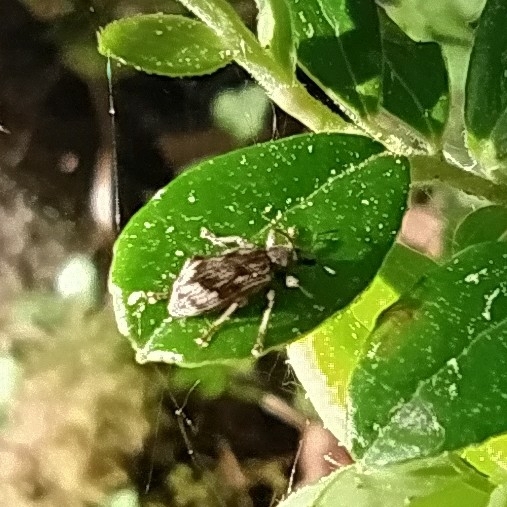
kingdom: Animalia
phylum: Arthropoda
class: Insecta
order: Coleoptera
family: Curculionidae
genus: Polydrusus
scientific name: Polydrusus tereticollis
